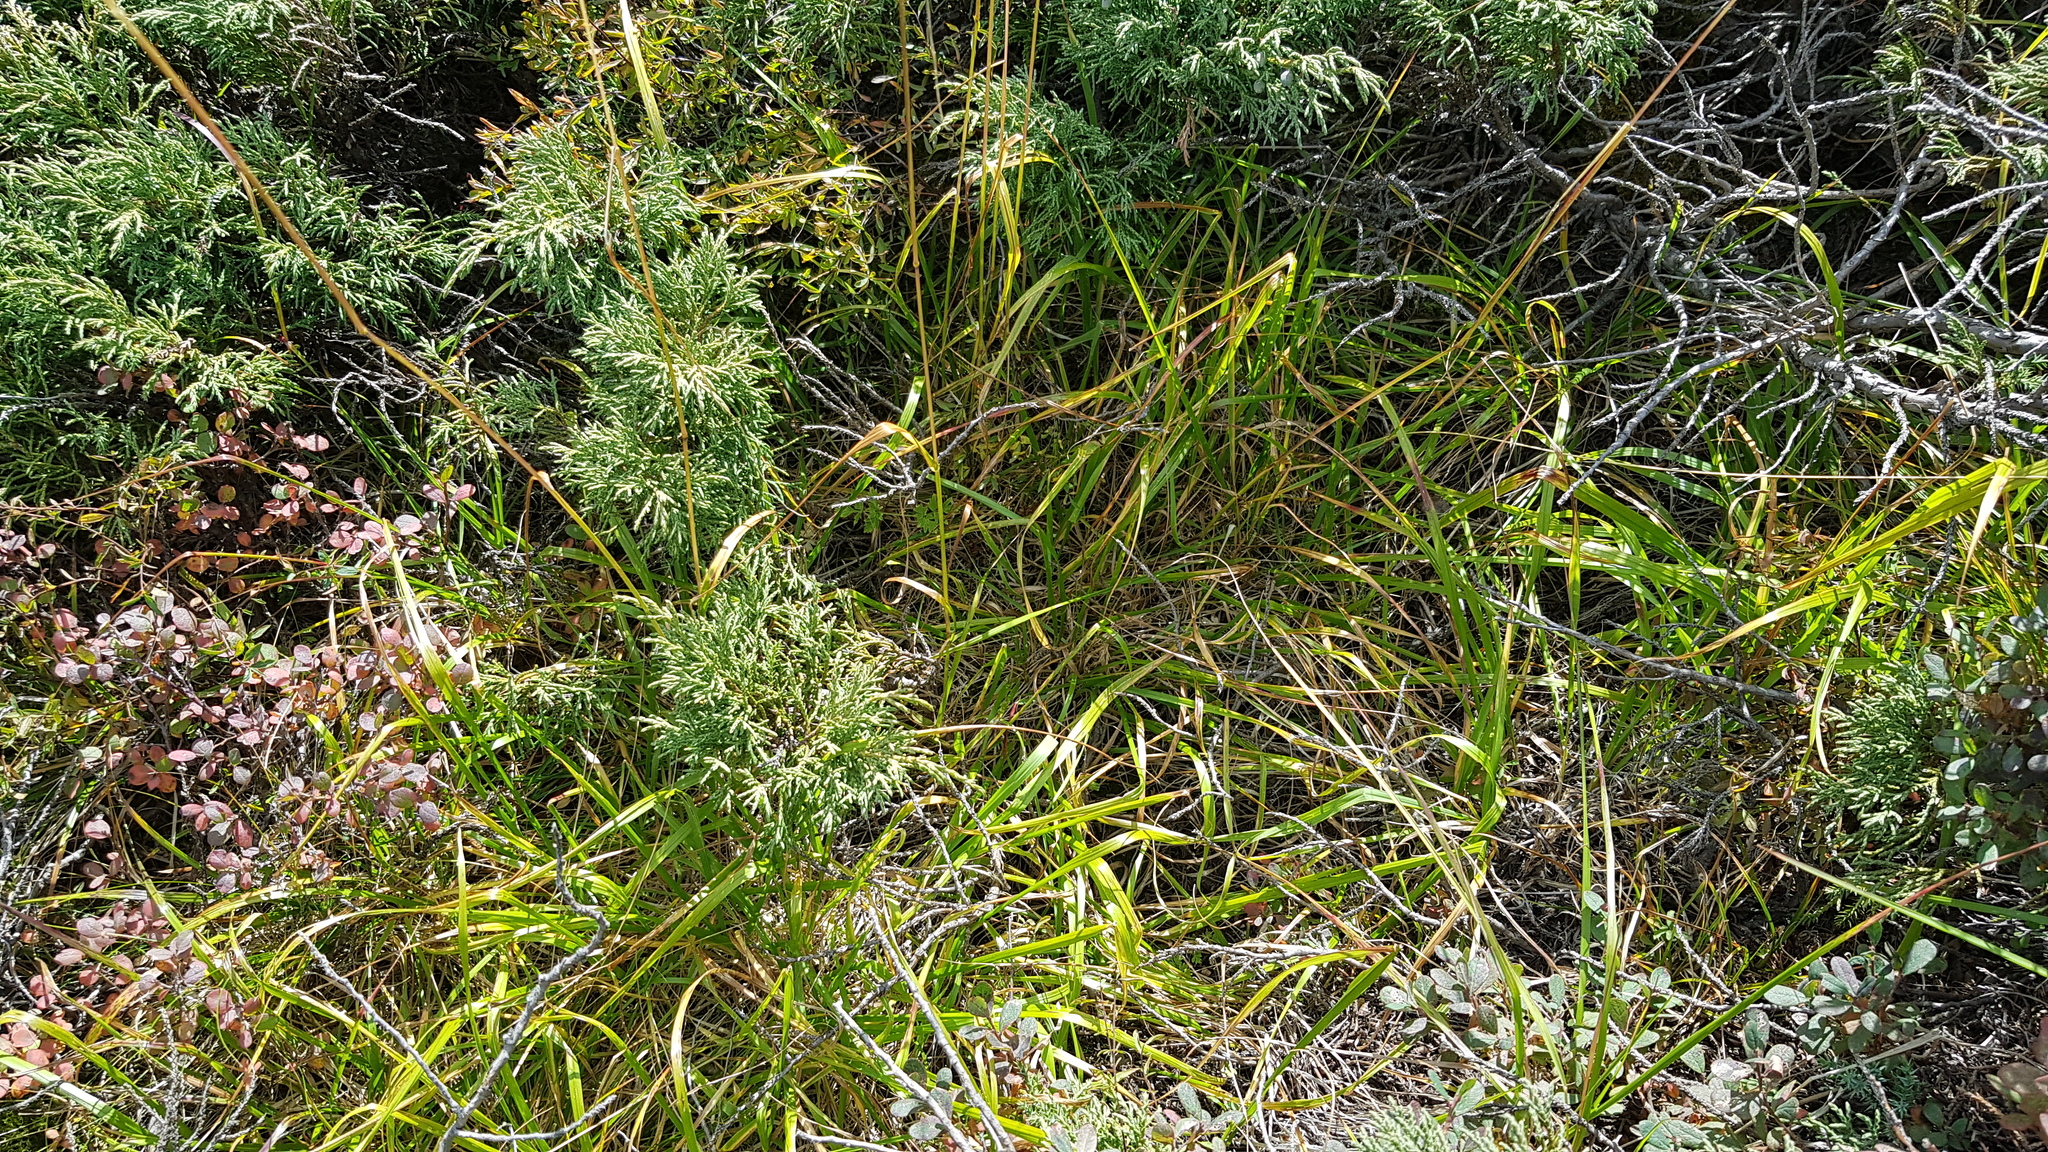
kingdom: Plantae
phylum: Tracheophyta
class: Pinopsida
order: Pinales
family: Cupressaceae
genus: Juniperus
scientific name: Juniperus pseudosabina
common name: Turkestan juniper
